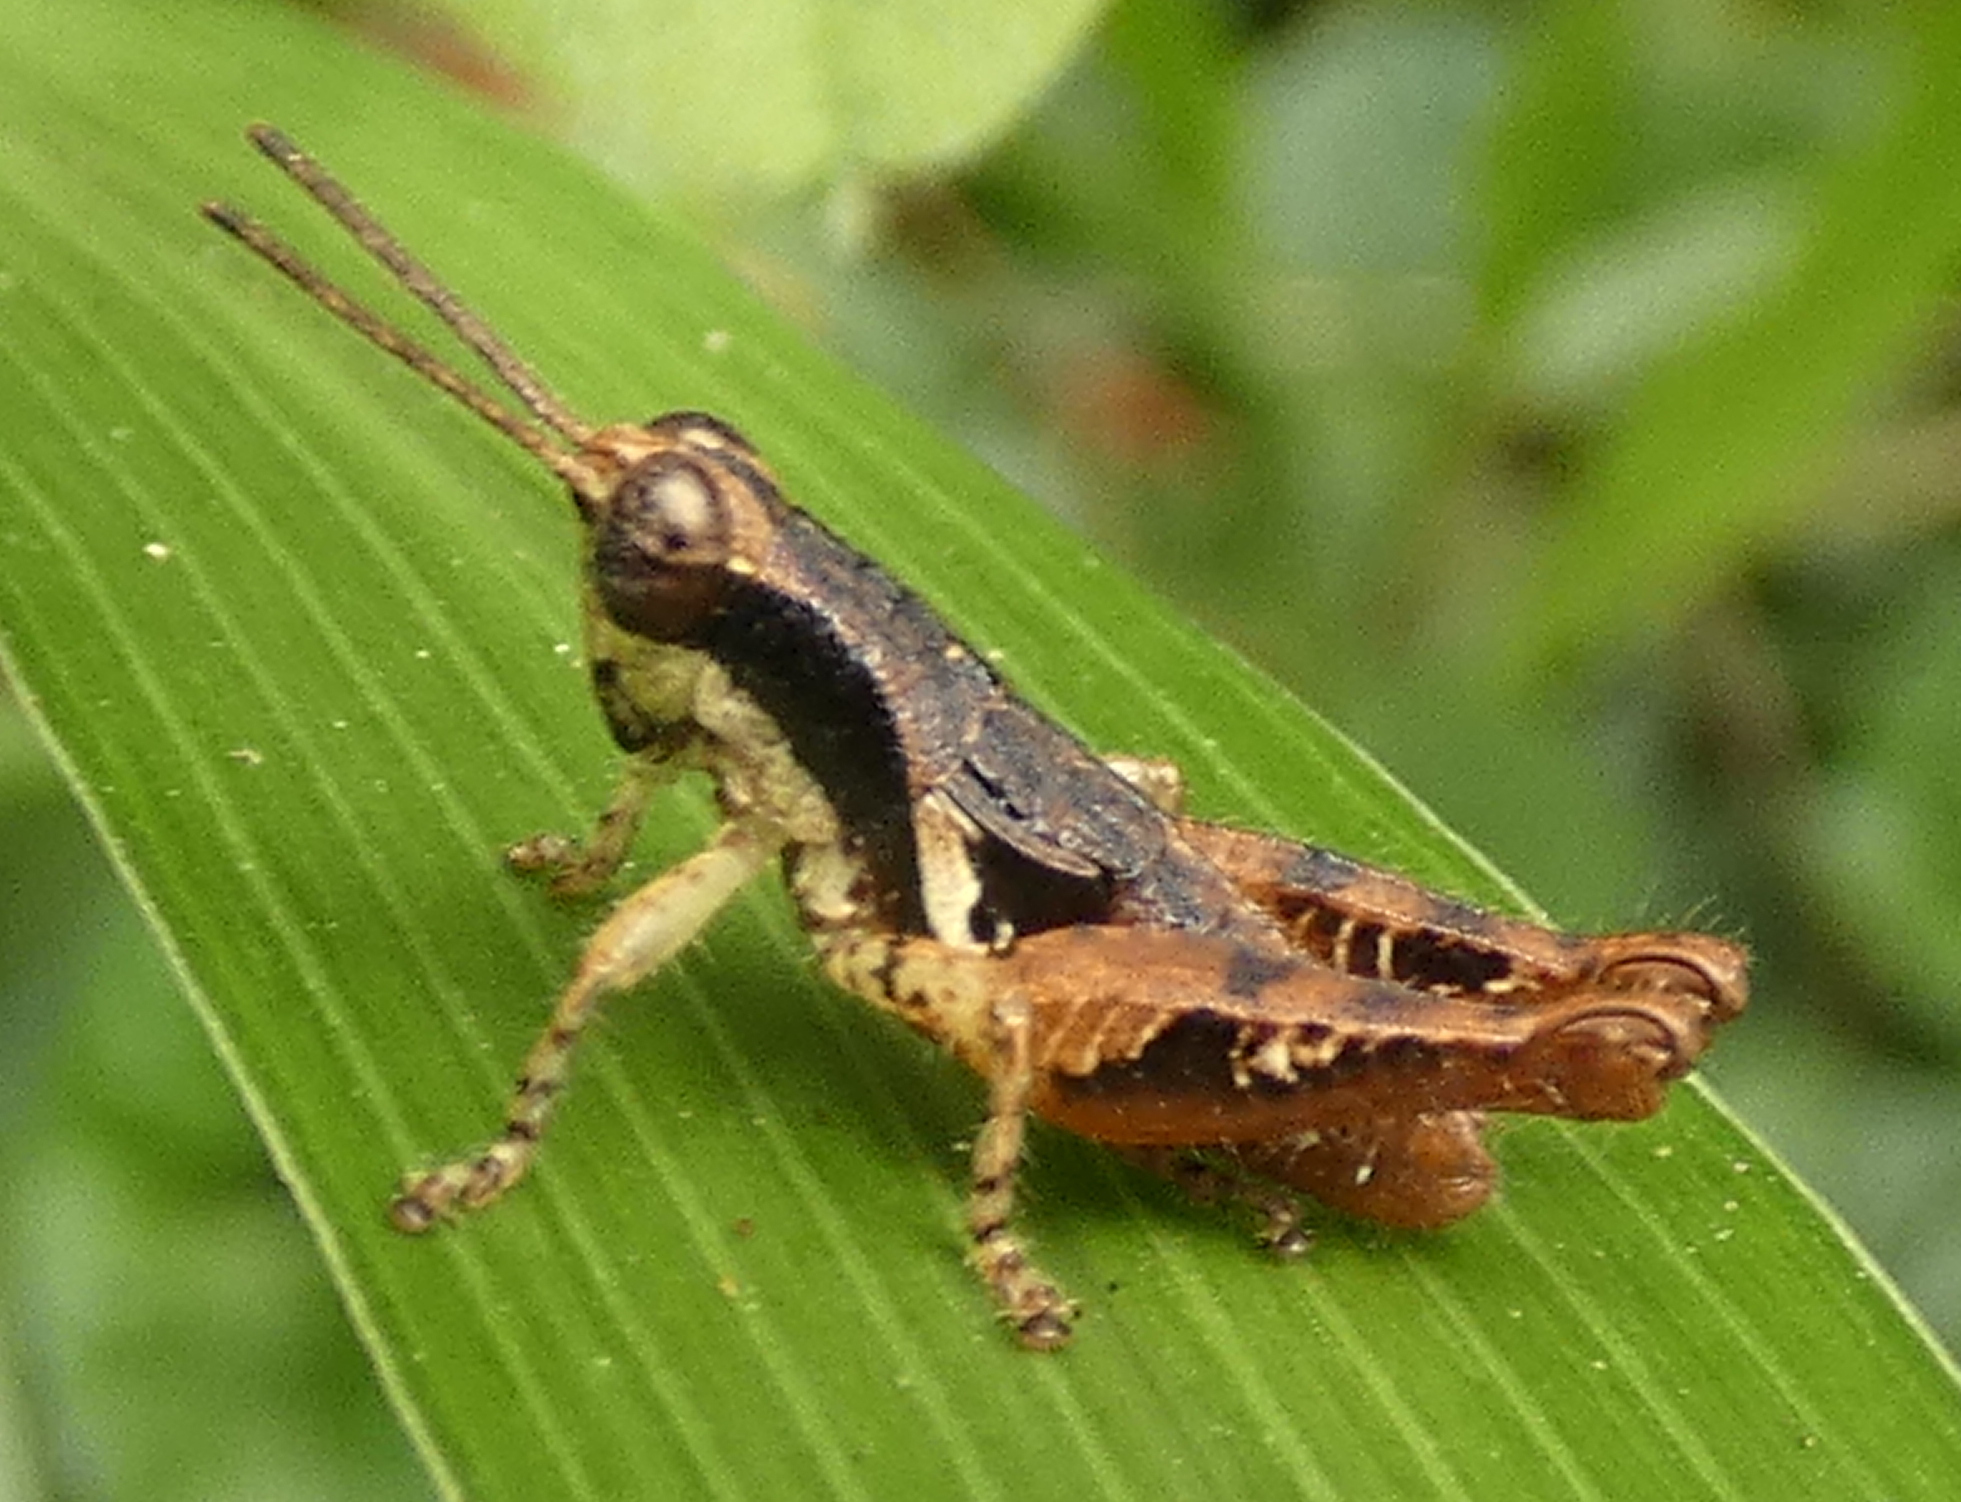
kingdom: Animalia
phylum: Arthropoda
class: Insecta
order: Orthoptera
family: Acrididae
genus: Eujivarus
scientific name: Eujivarus meridionalis
